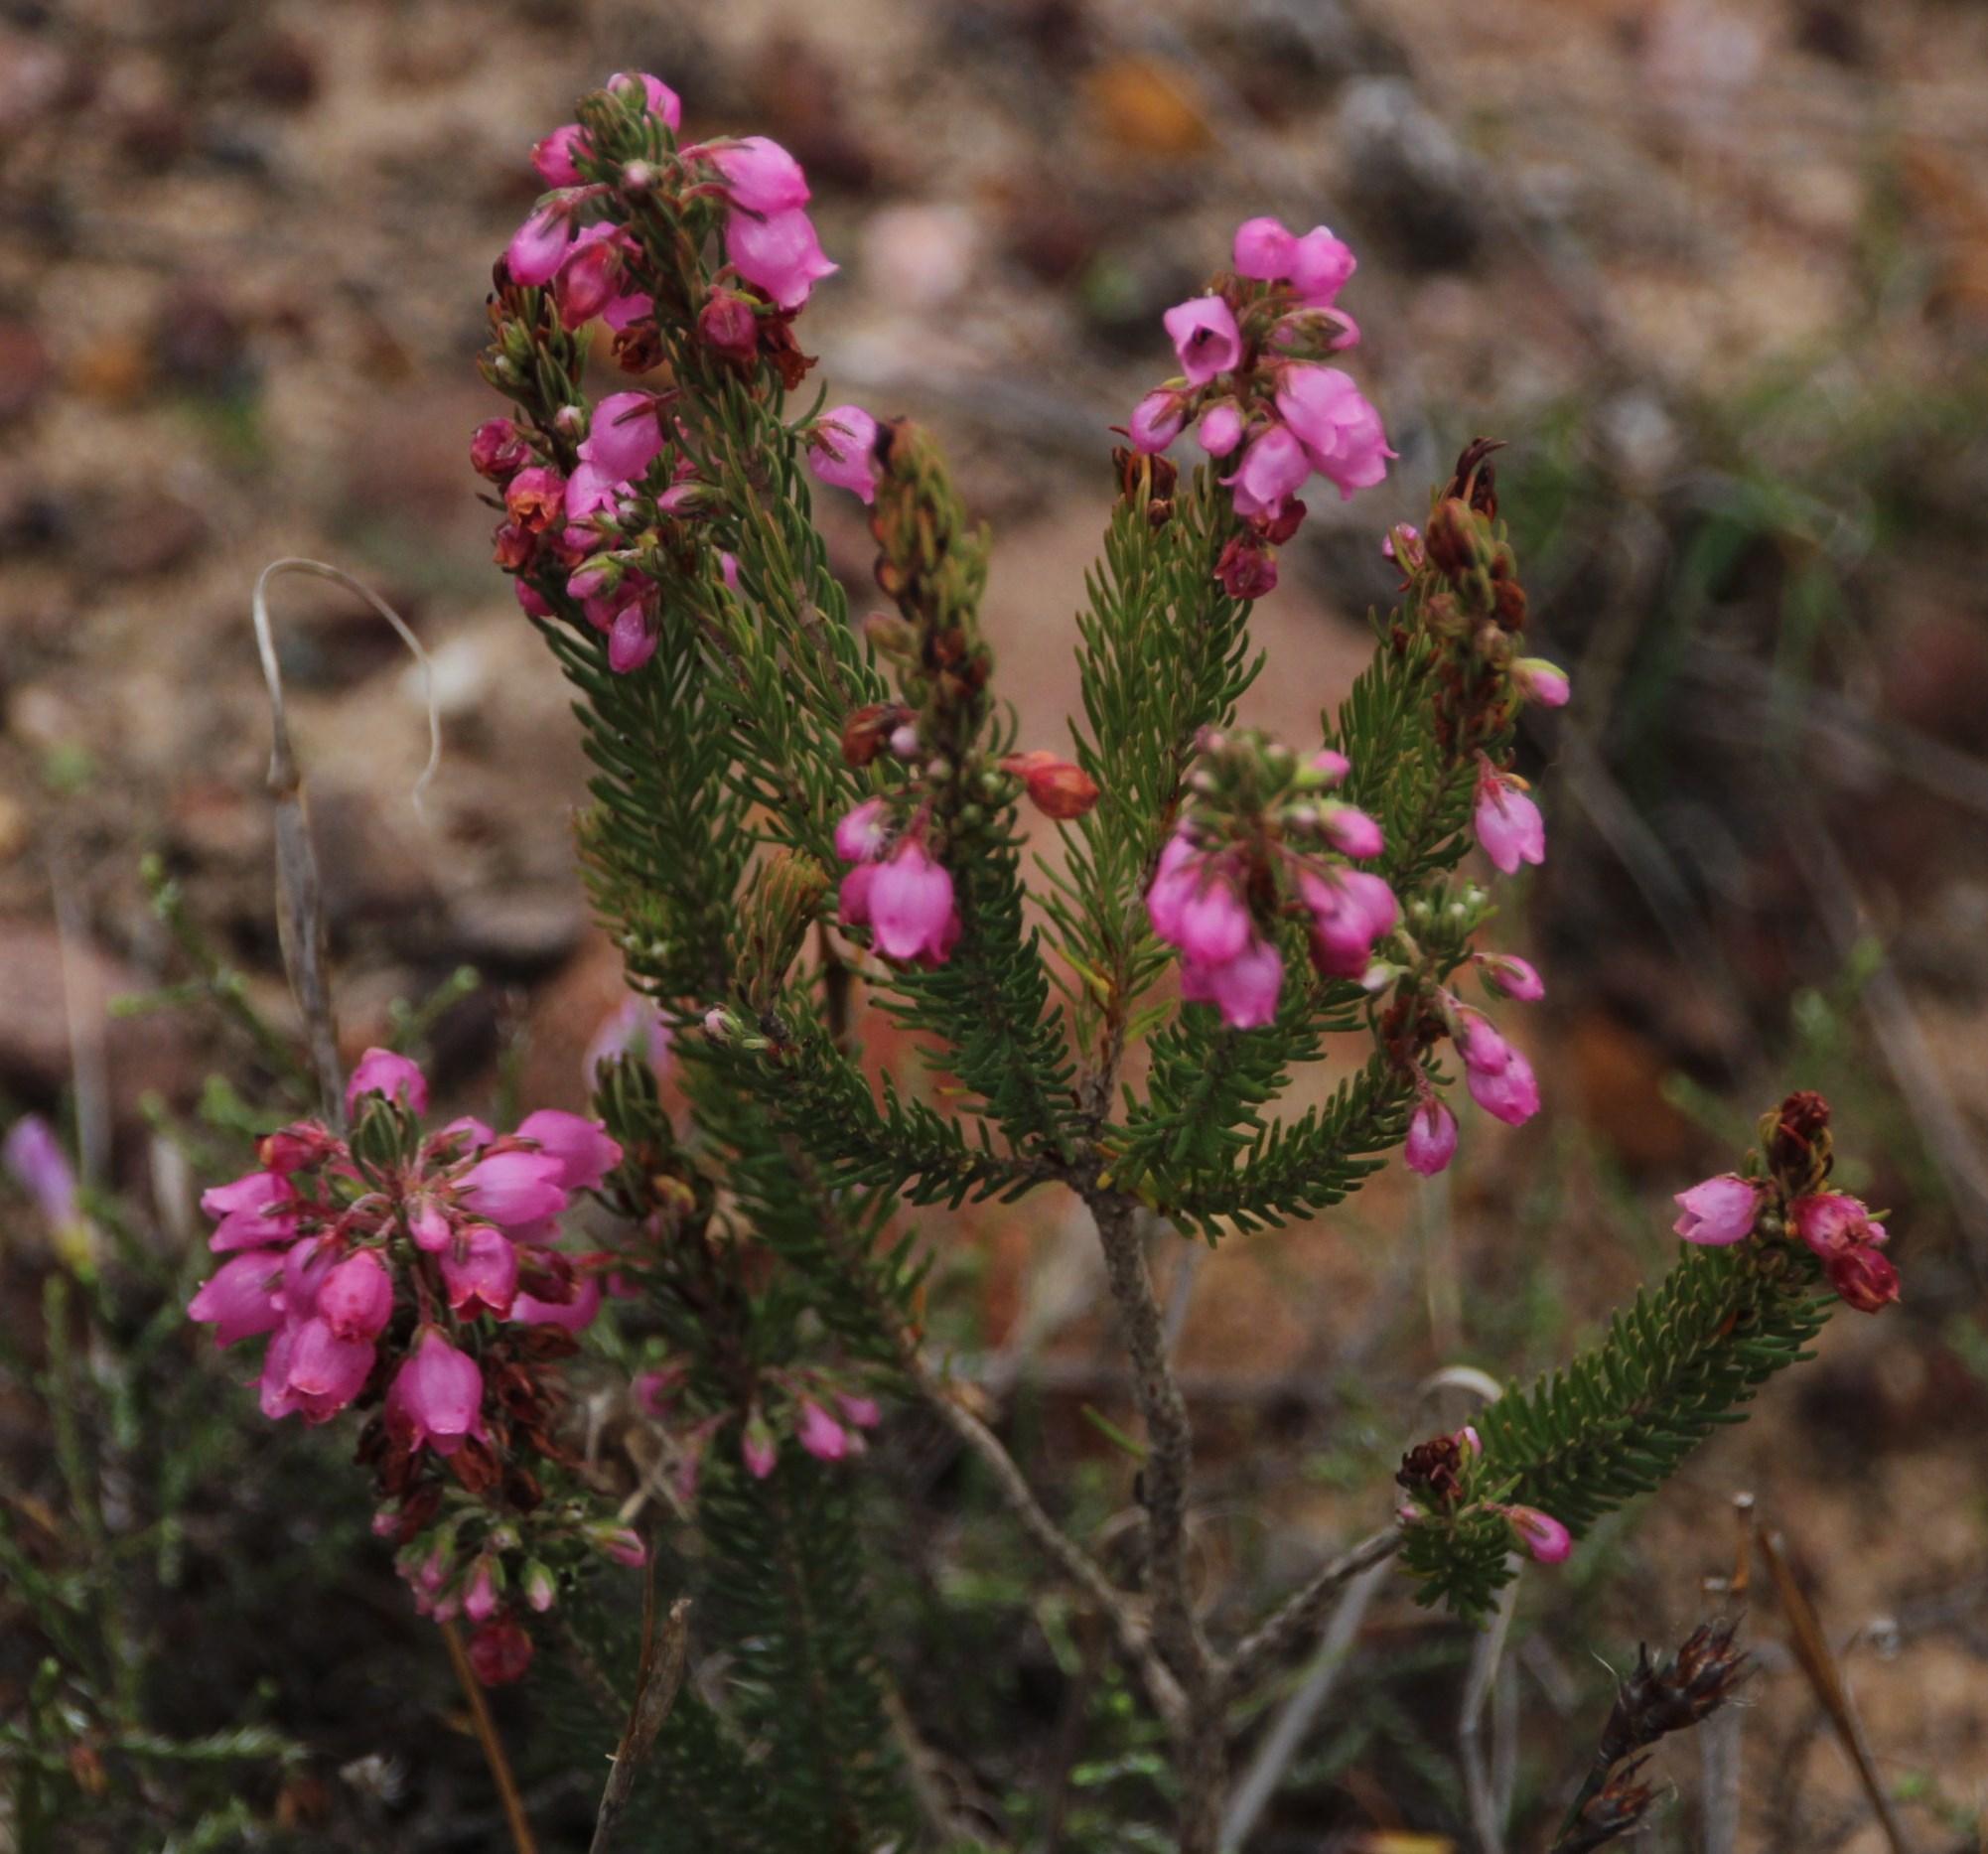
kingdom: Plantae
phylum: Tracheophyta
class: Magnoliopsida
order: Ericales
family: Ericaceae
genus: Erica
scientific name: Erica viscaria
